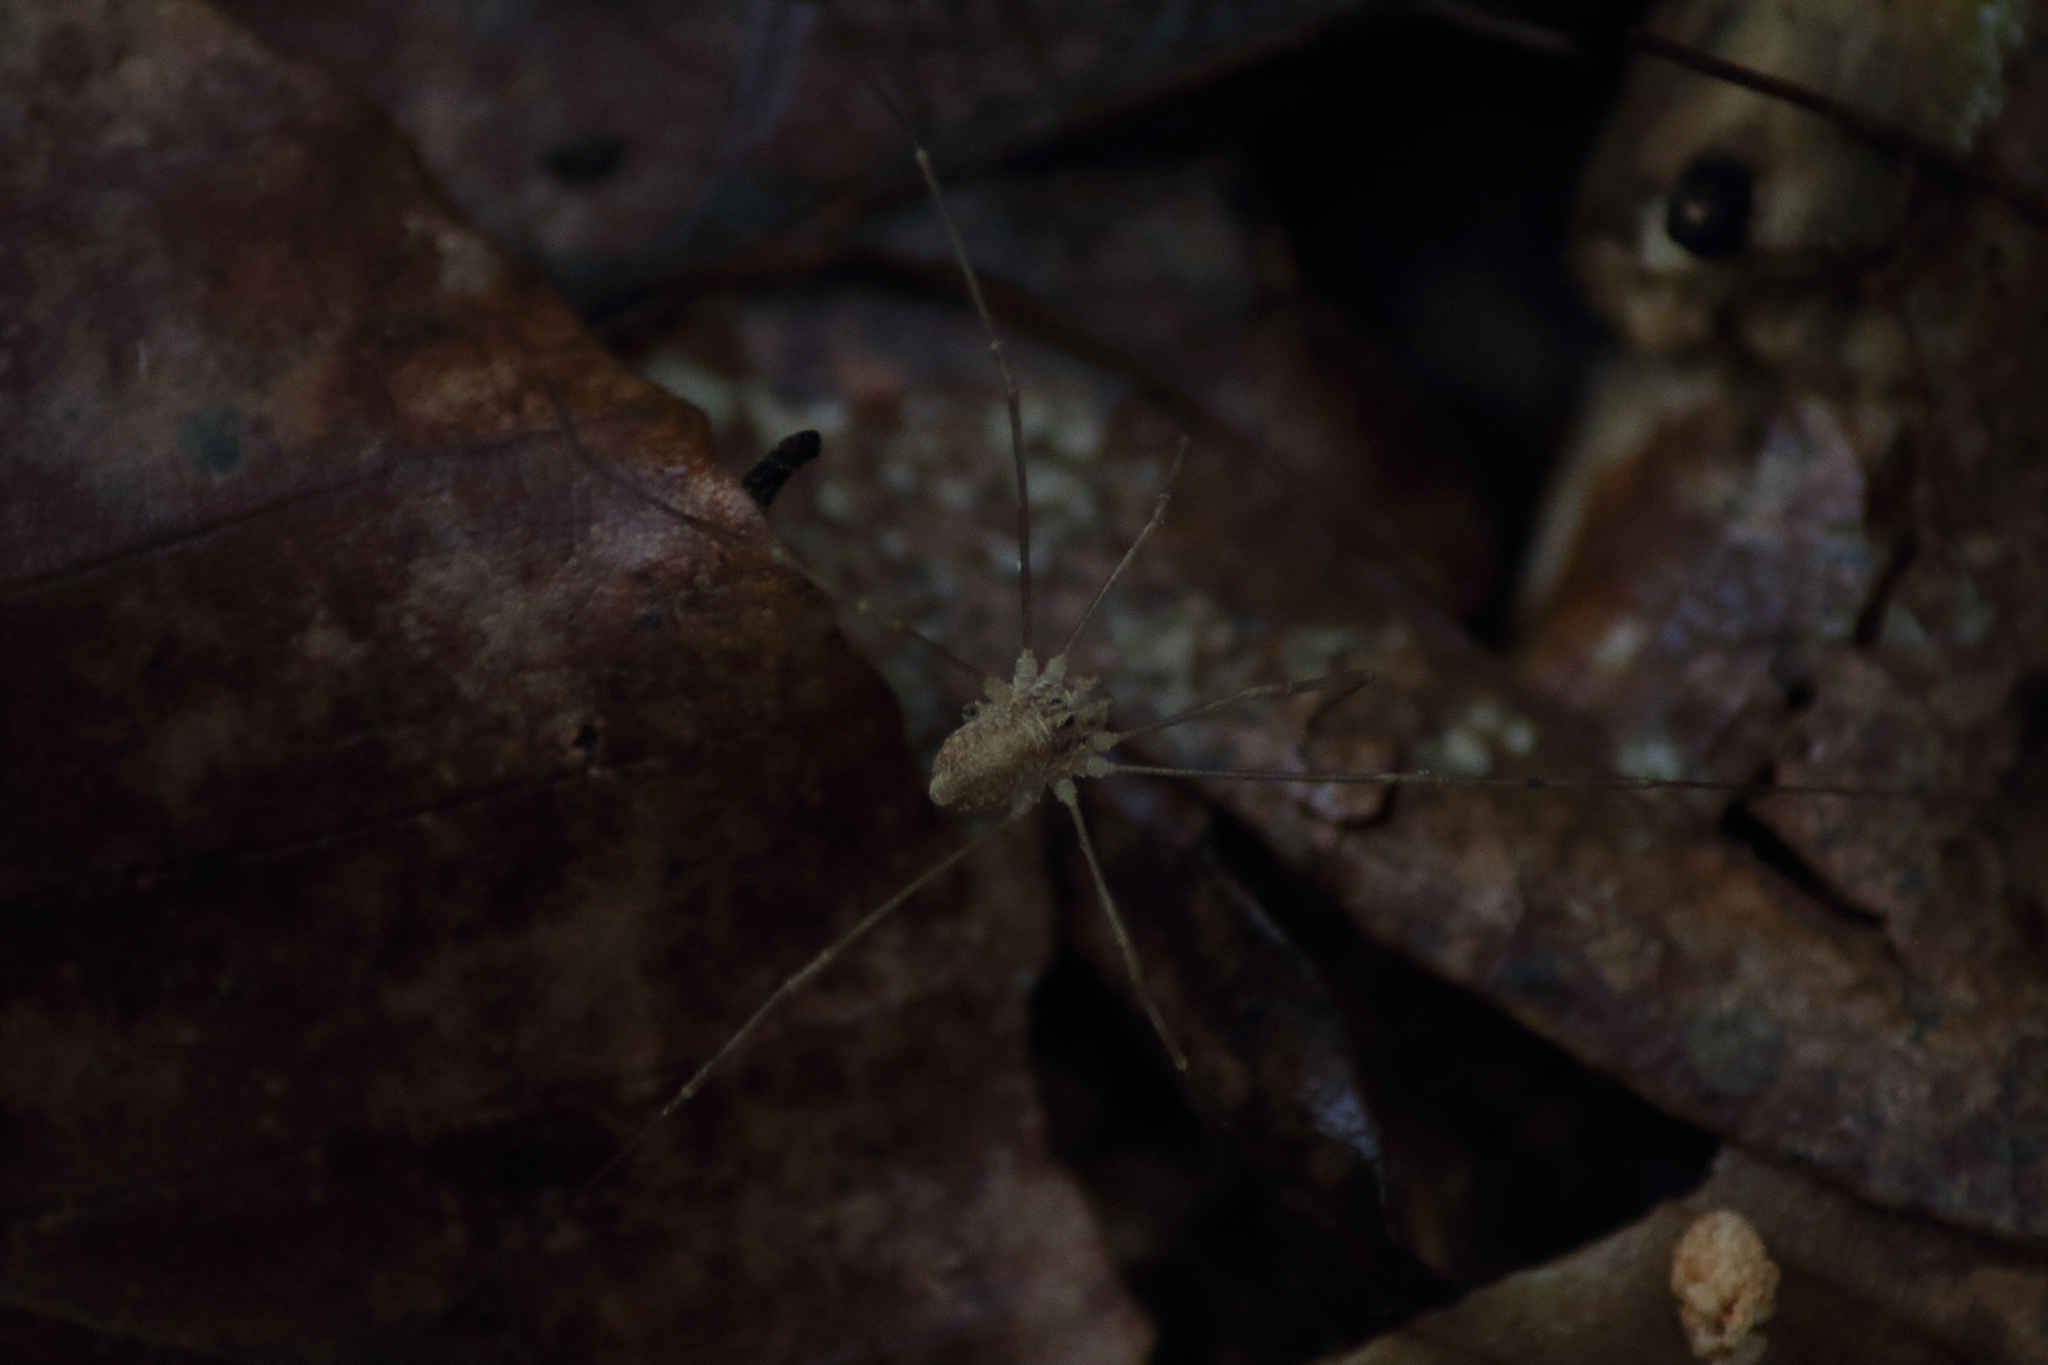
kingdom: Animalia
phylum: Arthropoda
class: Arachnida
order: Opiliones
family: Phalangiidae
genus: Rilaena
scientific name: Rilaena triangularis
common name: Spring harvestman
